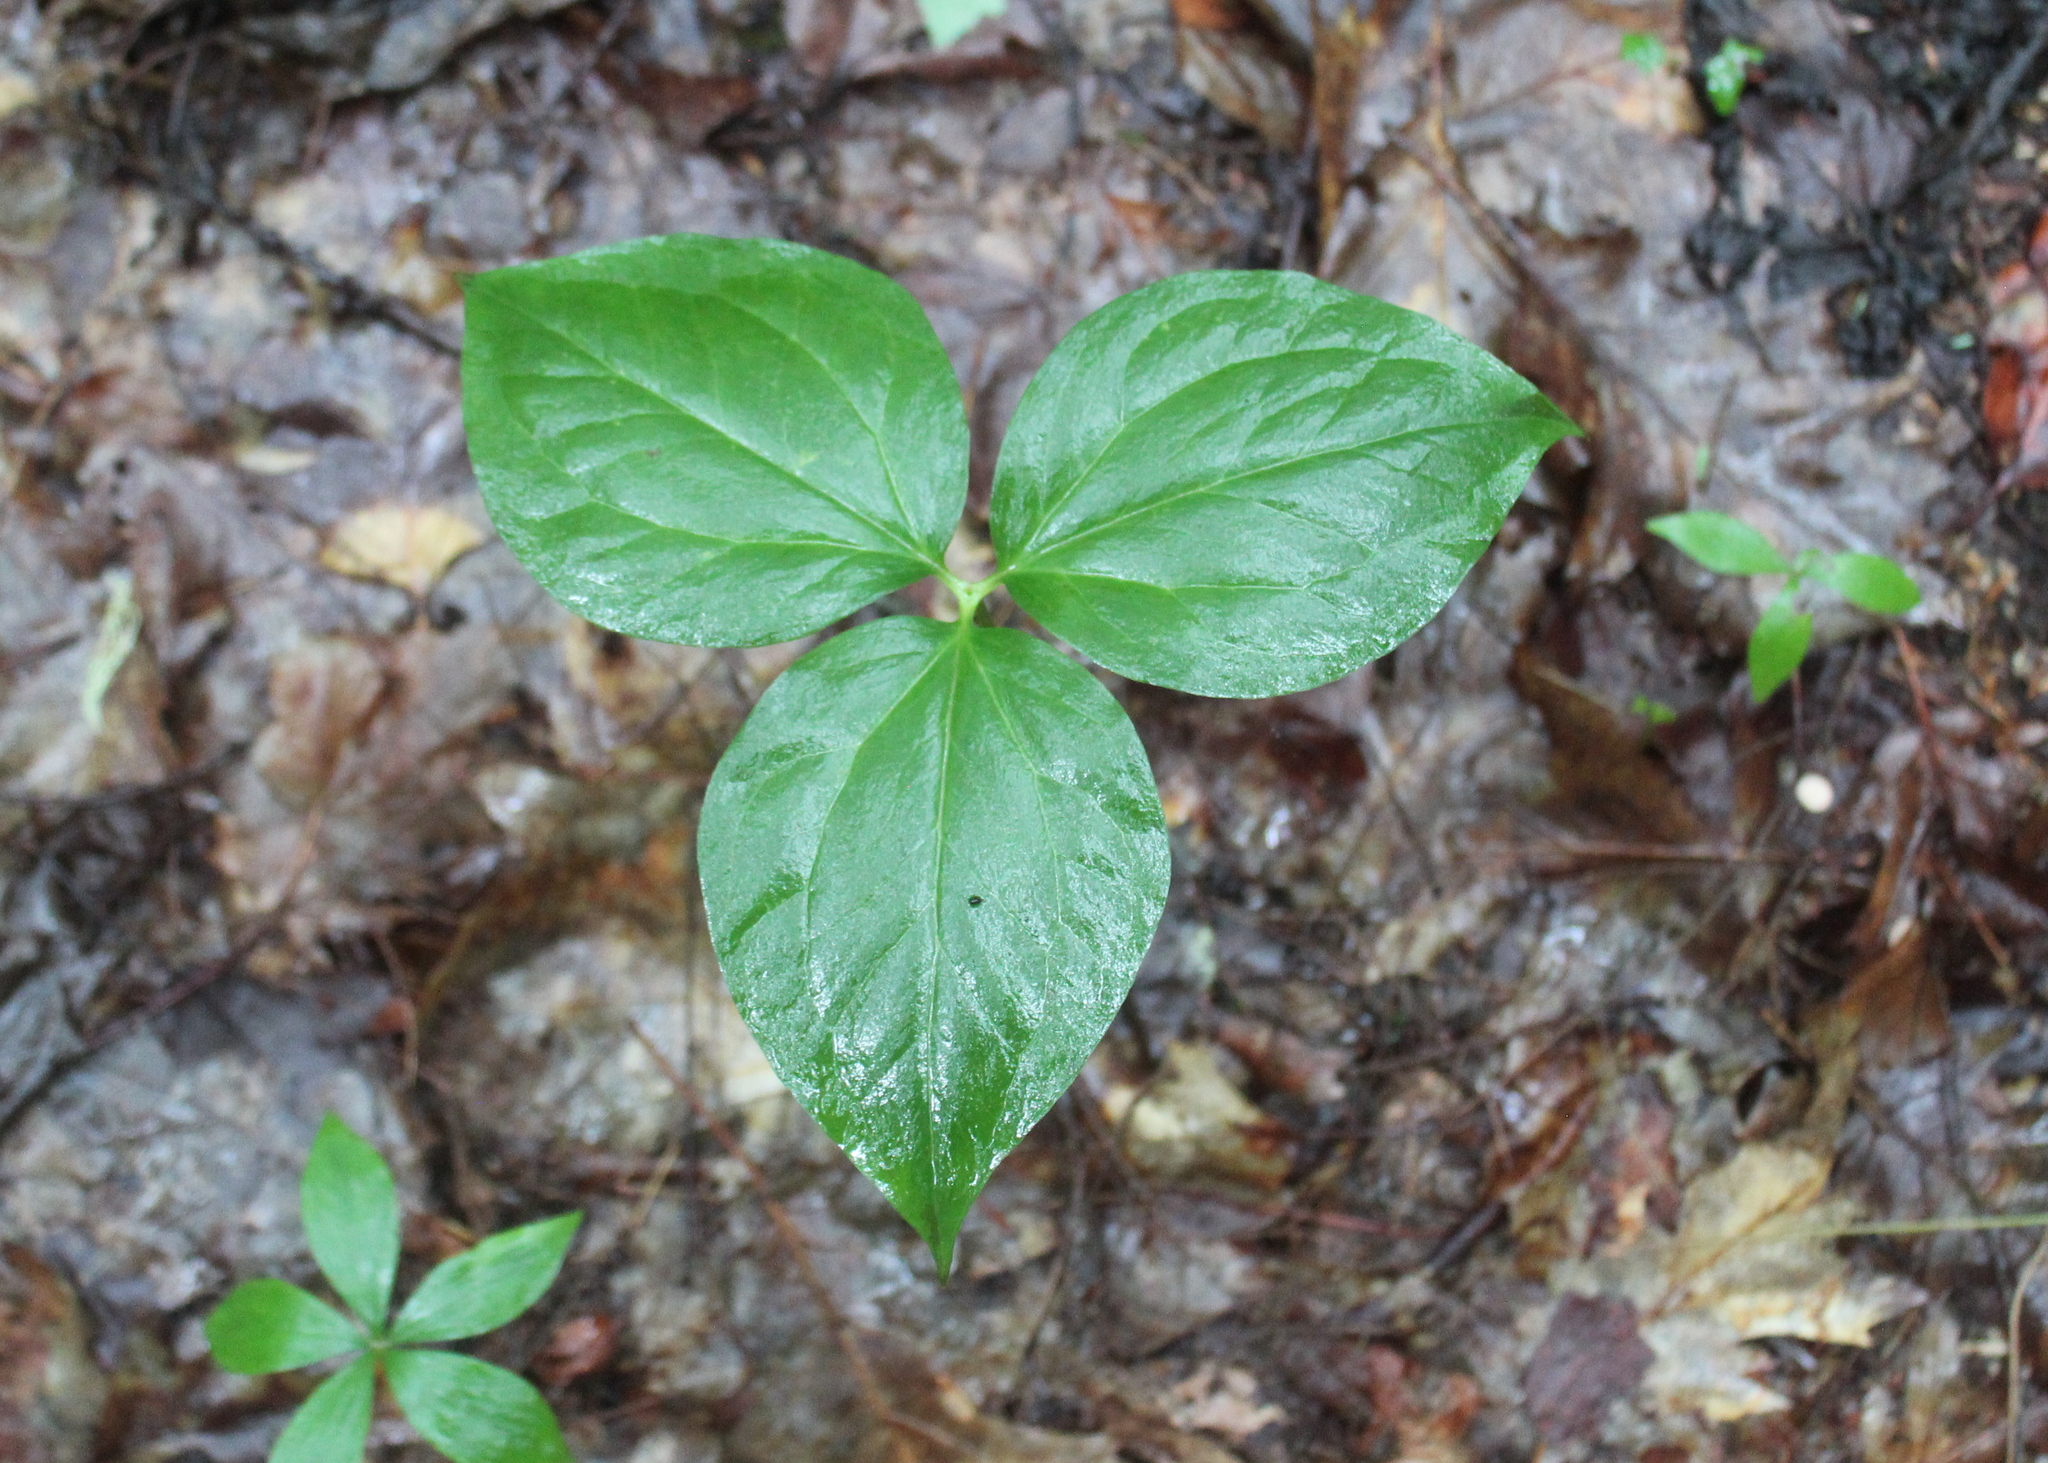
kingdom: Plantae
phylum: Tracheophyta
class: Liliopsida
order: Liliales
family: Melanthiaceae
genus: Trillium
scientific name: Trillium undulatum
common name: Paint trillium
